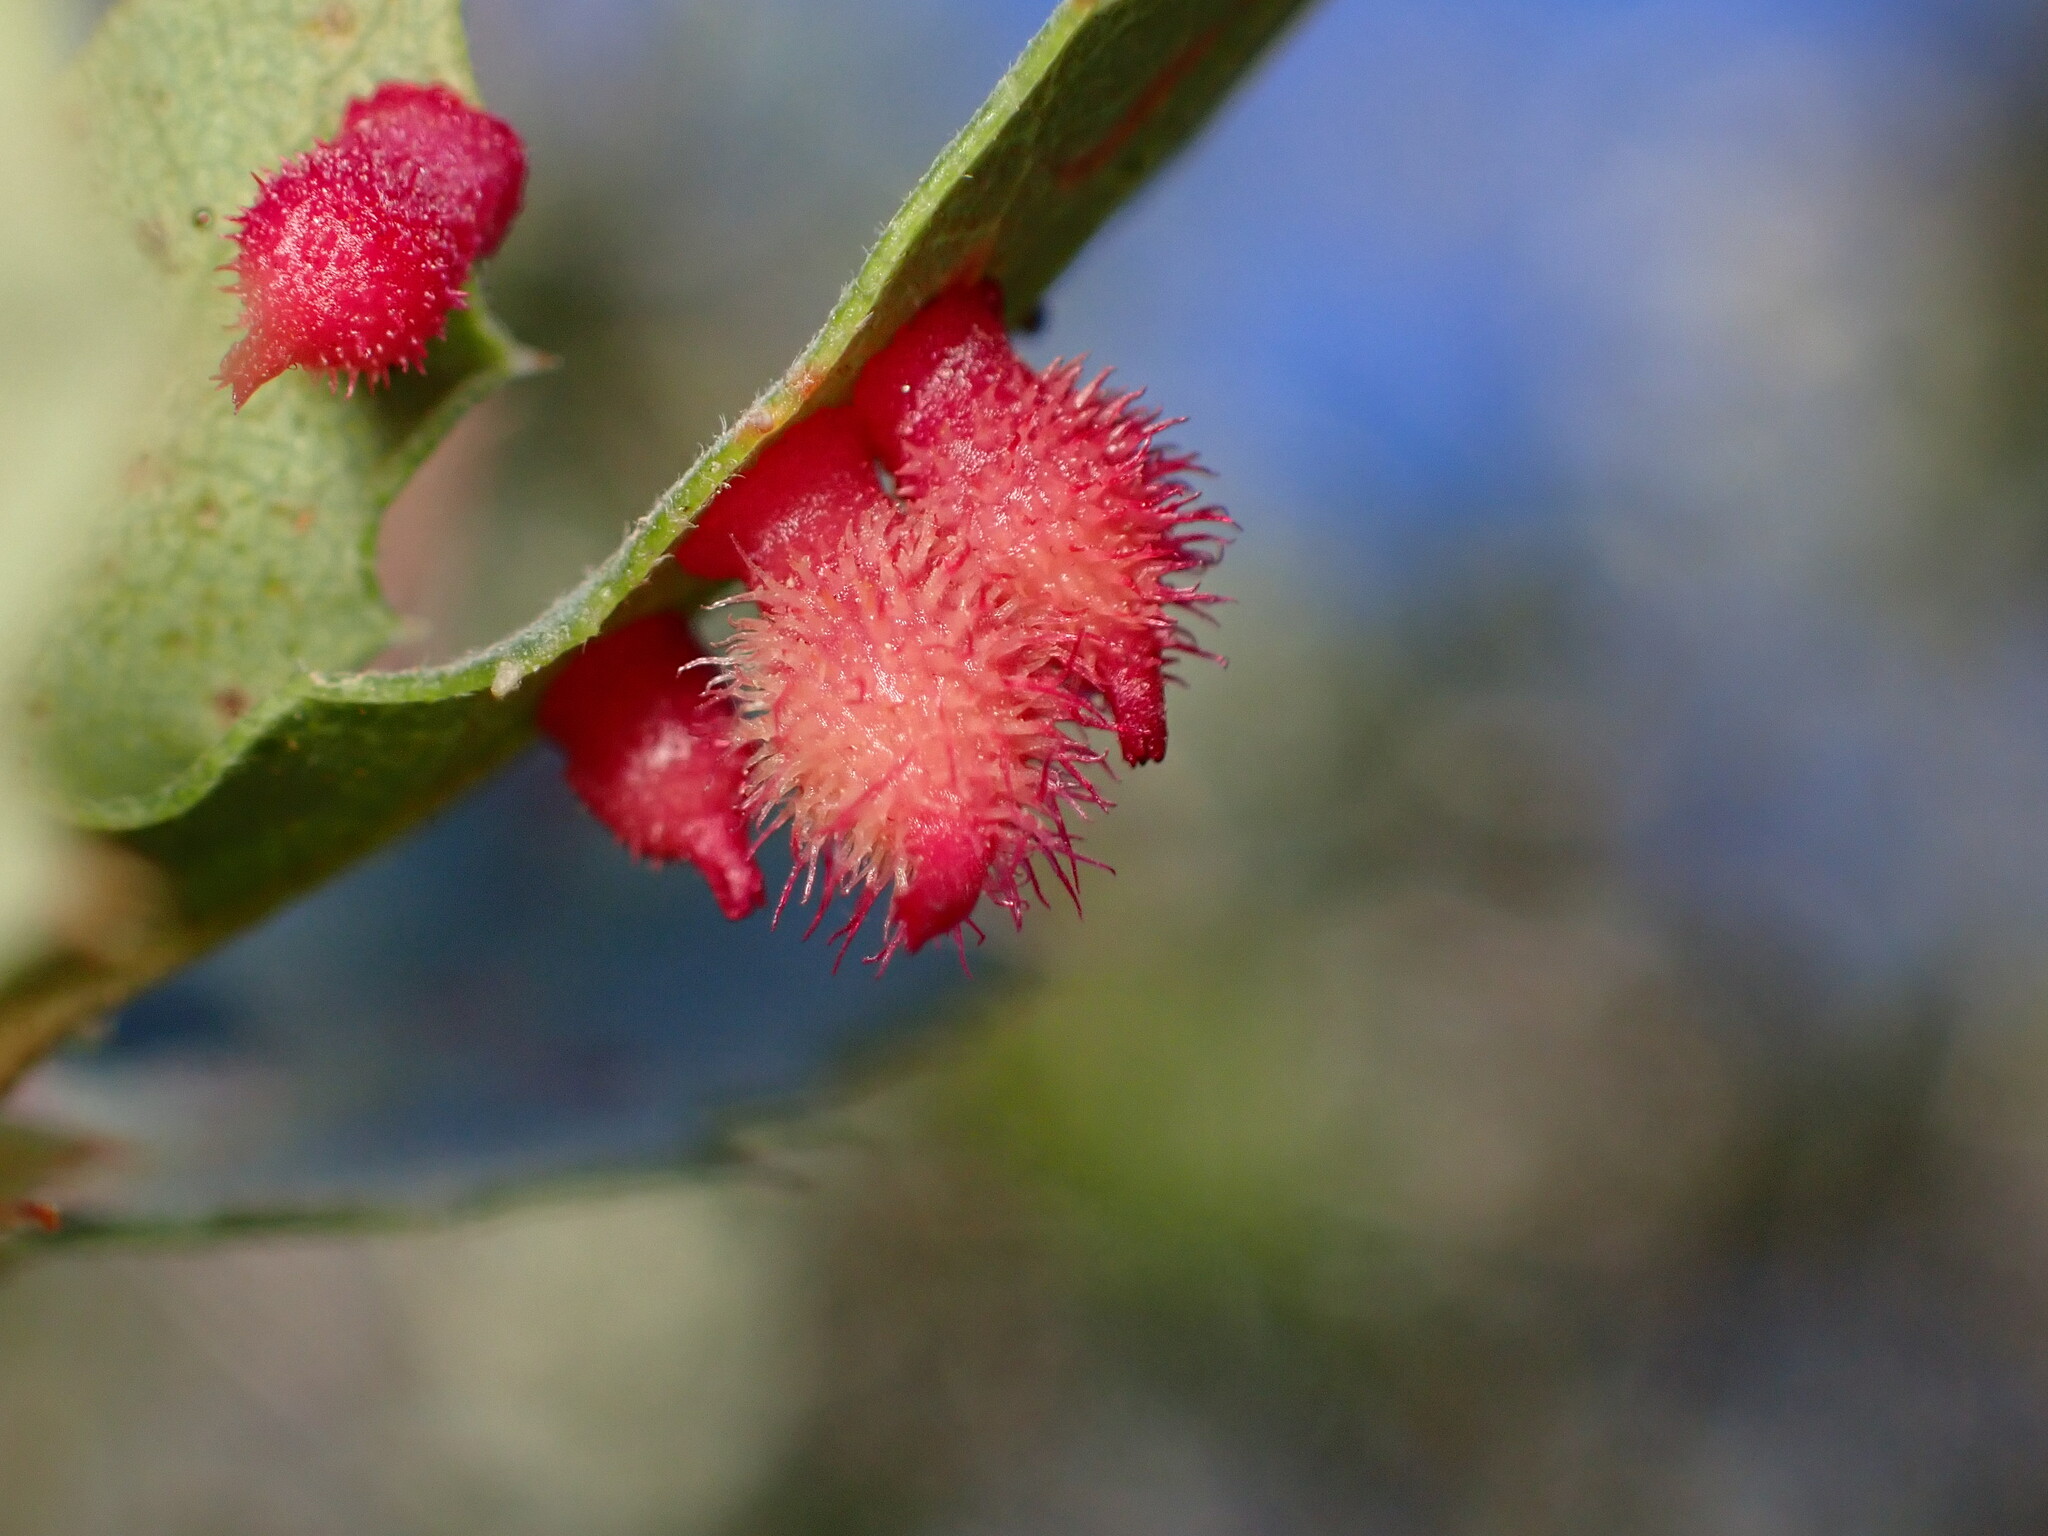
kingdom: Animalia
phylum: Arthropoda
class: Insecta
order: Hymenoptera
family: Cynipidae
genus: Andricus
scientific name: Andricus
